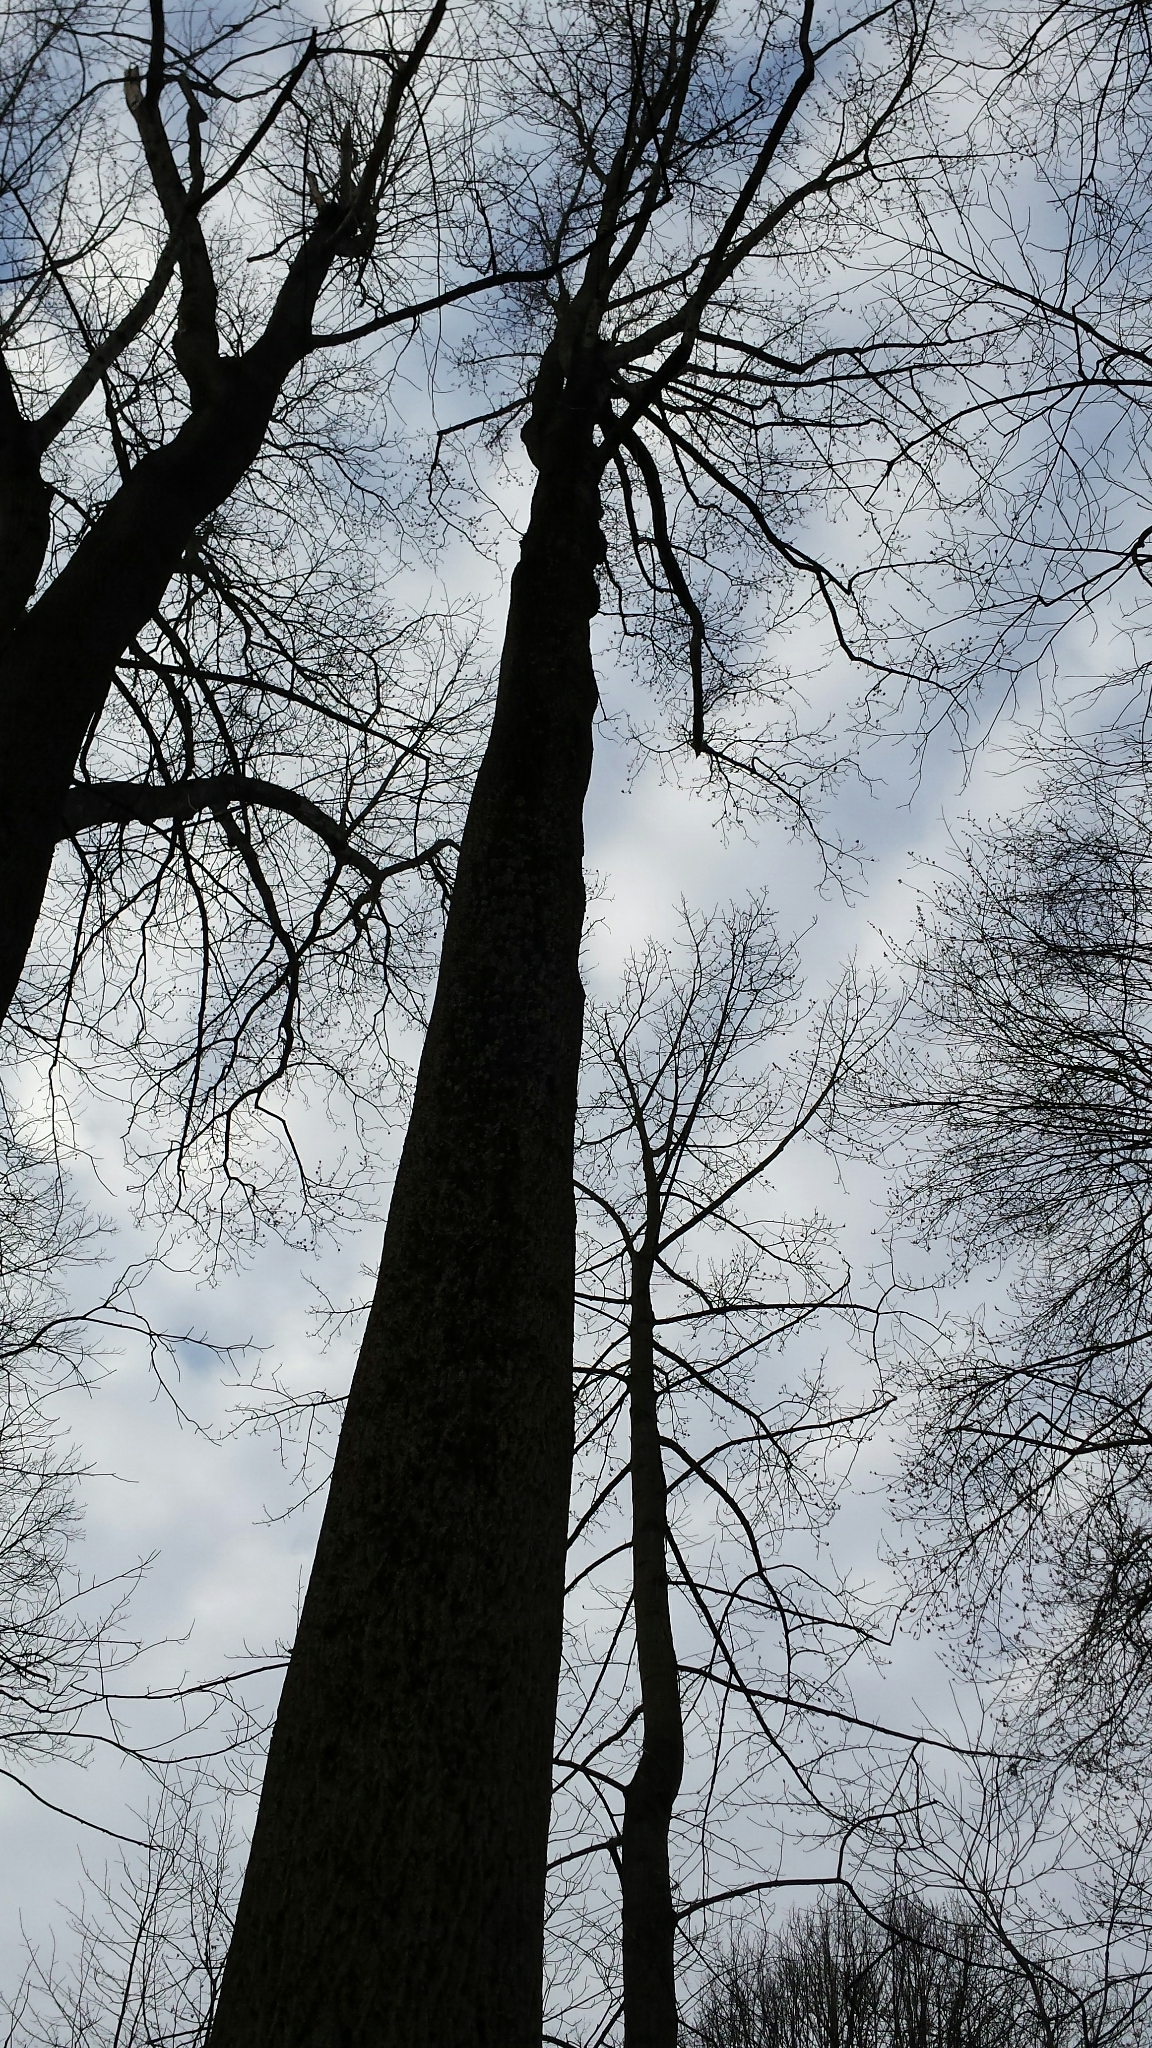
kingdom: Plantae
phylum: Tracheophyta
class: Magnoliopsida
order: Magnoliales
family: Magnoliaceae
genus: Liriodendron
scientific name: Liriodendron tulipifera
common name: Tulip tree
